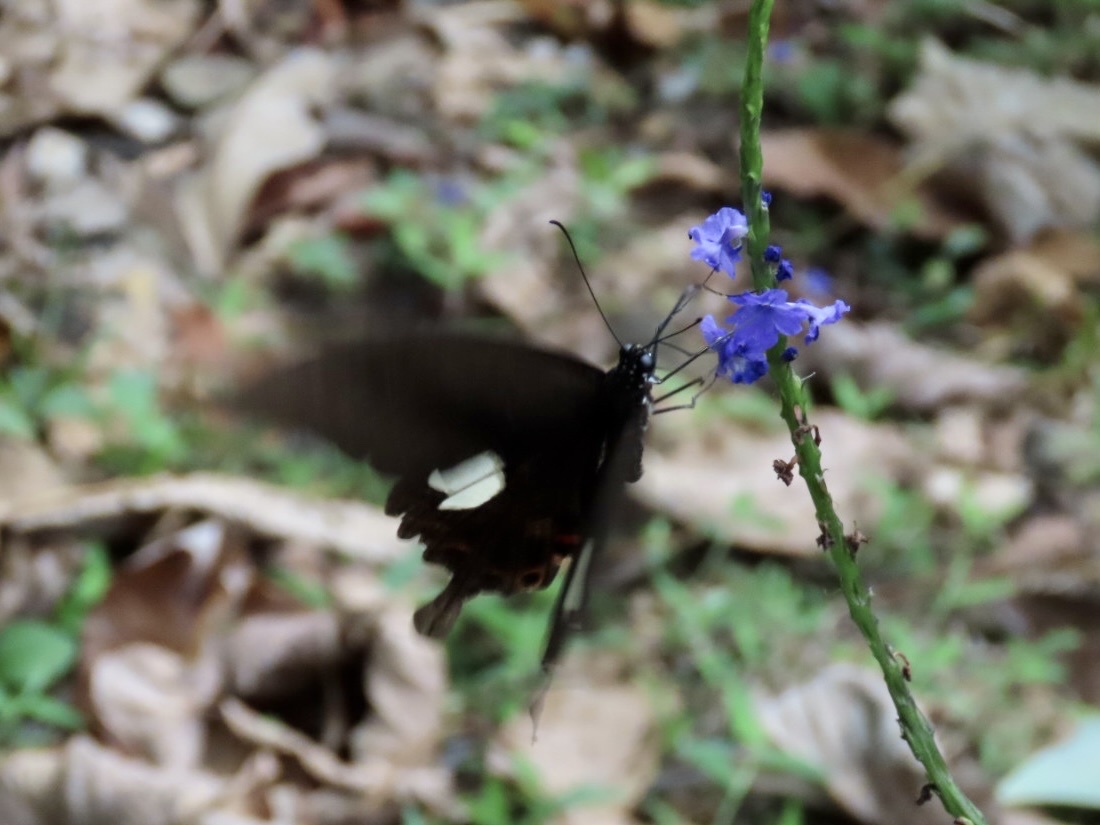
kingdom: Animalia
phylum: Arthropoda
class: Insecta
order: Lepidoptera
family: Papilionidae
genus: Papilio
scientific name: Papilio helenus
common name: Red helen
